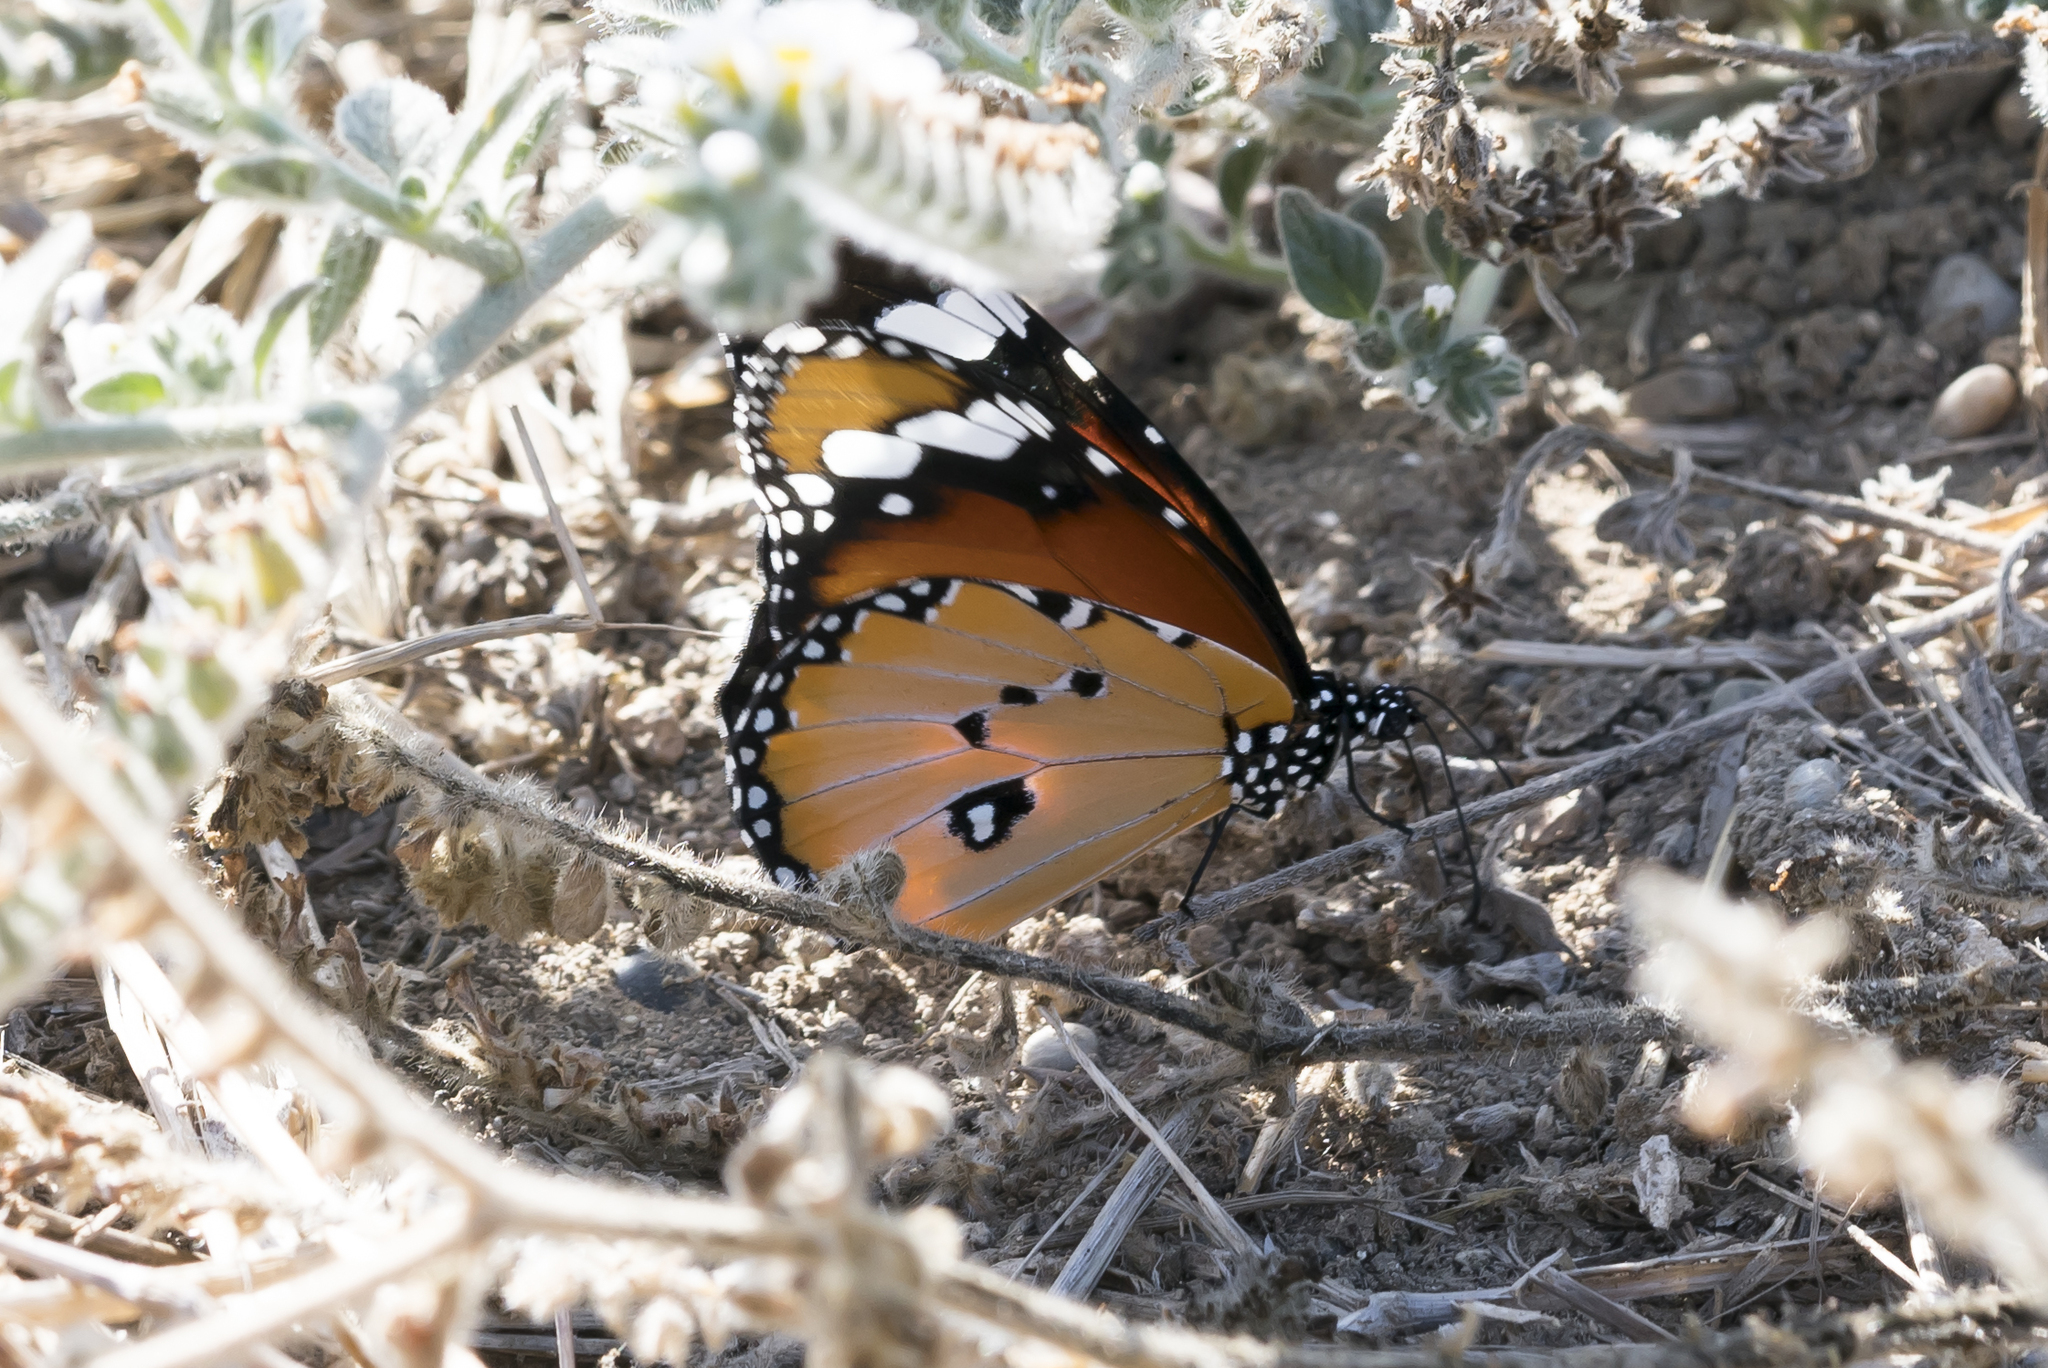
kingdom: Animalia
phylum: Arthropoda
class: Insecta
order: Lepidoptera
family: Nymphalidae
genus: Danaus
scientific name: Danaus chrysippus
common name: Plain tiger
